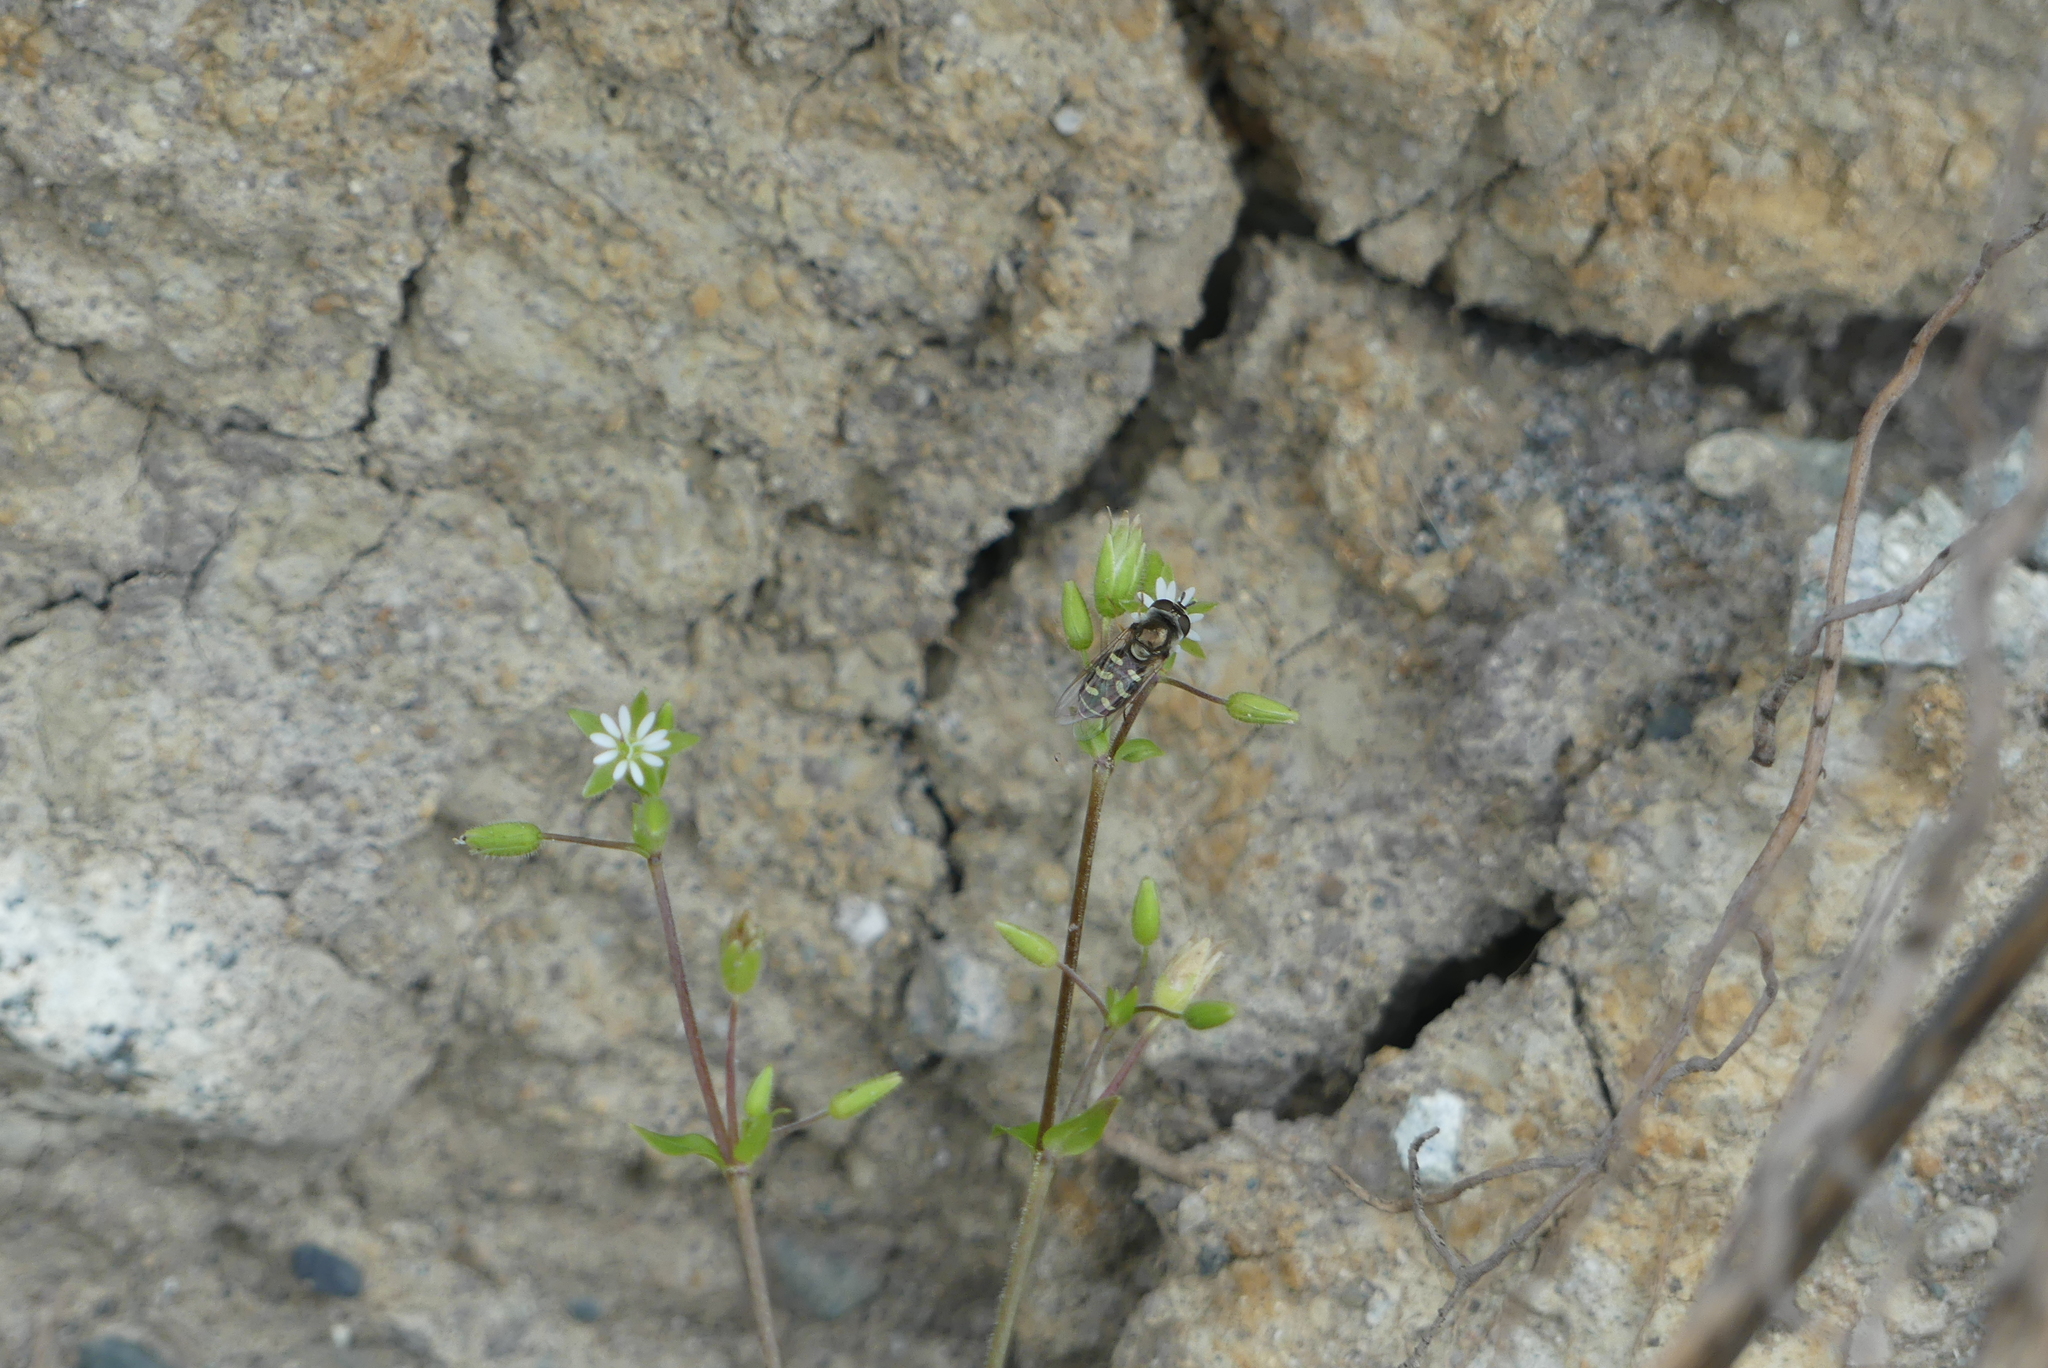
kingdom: Animalia
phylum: Arthropoda
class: Insecta
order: Diptera
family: Syrphidae
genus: Eupeodes
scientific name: Eupeodes volucris
